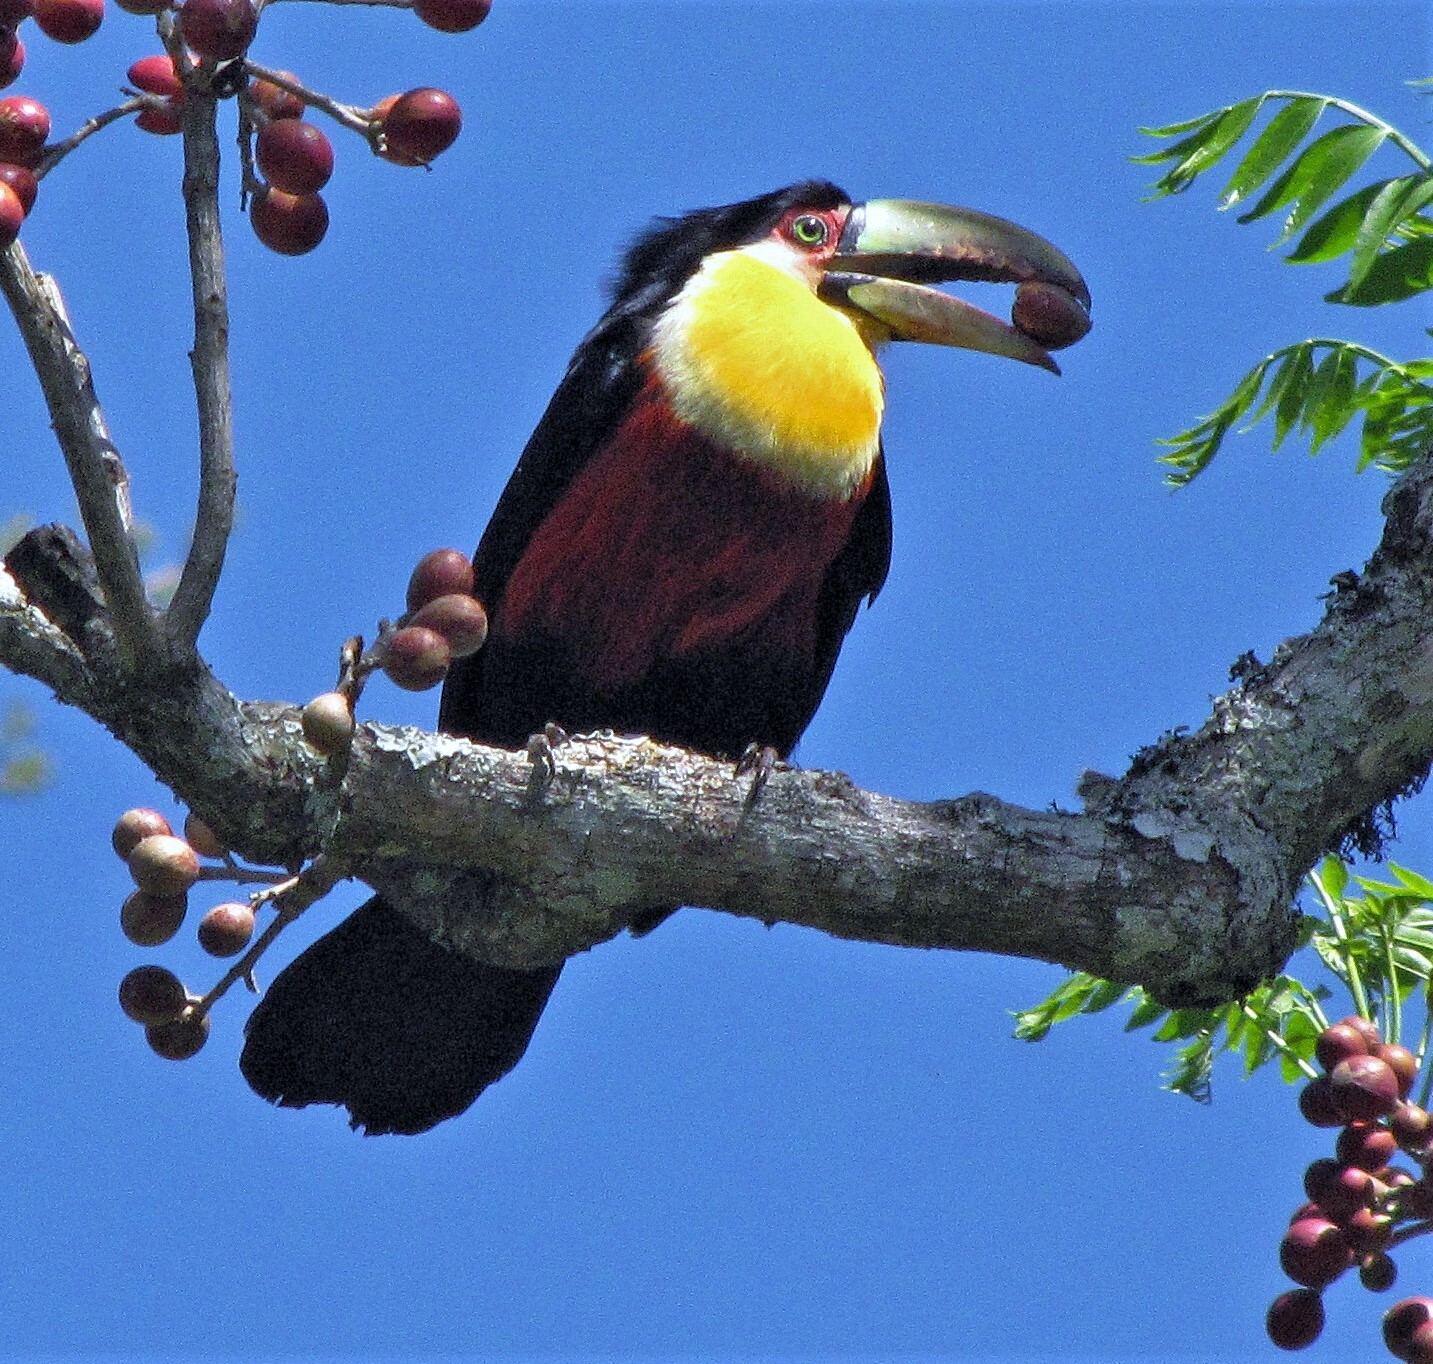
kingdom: Animalia
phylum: Chordata
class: Aves
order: Piciformes
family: Ramphastidae
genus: Ramphastos
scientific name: Ramphastos dicolorus
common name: Green-billed toucan
